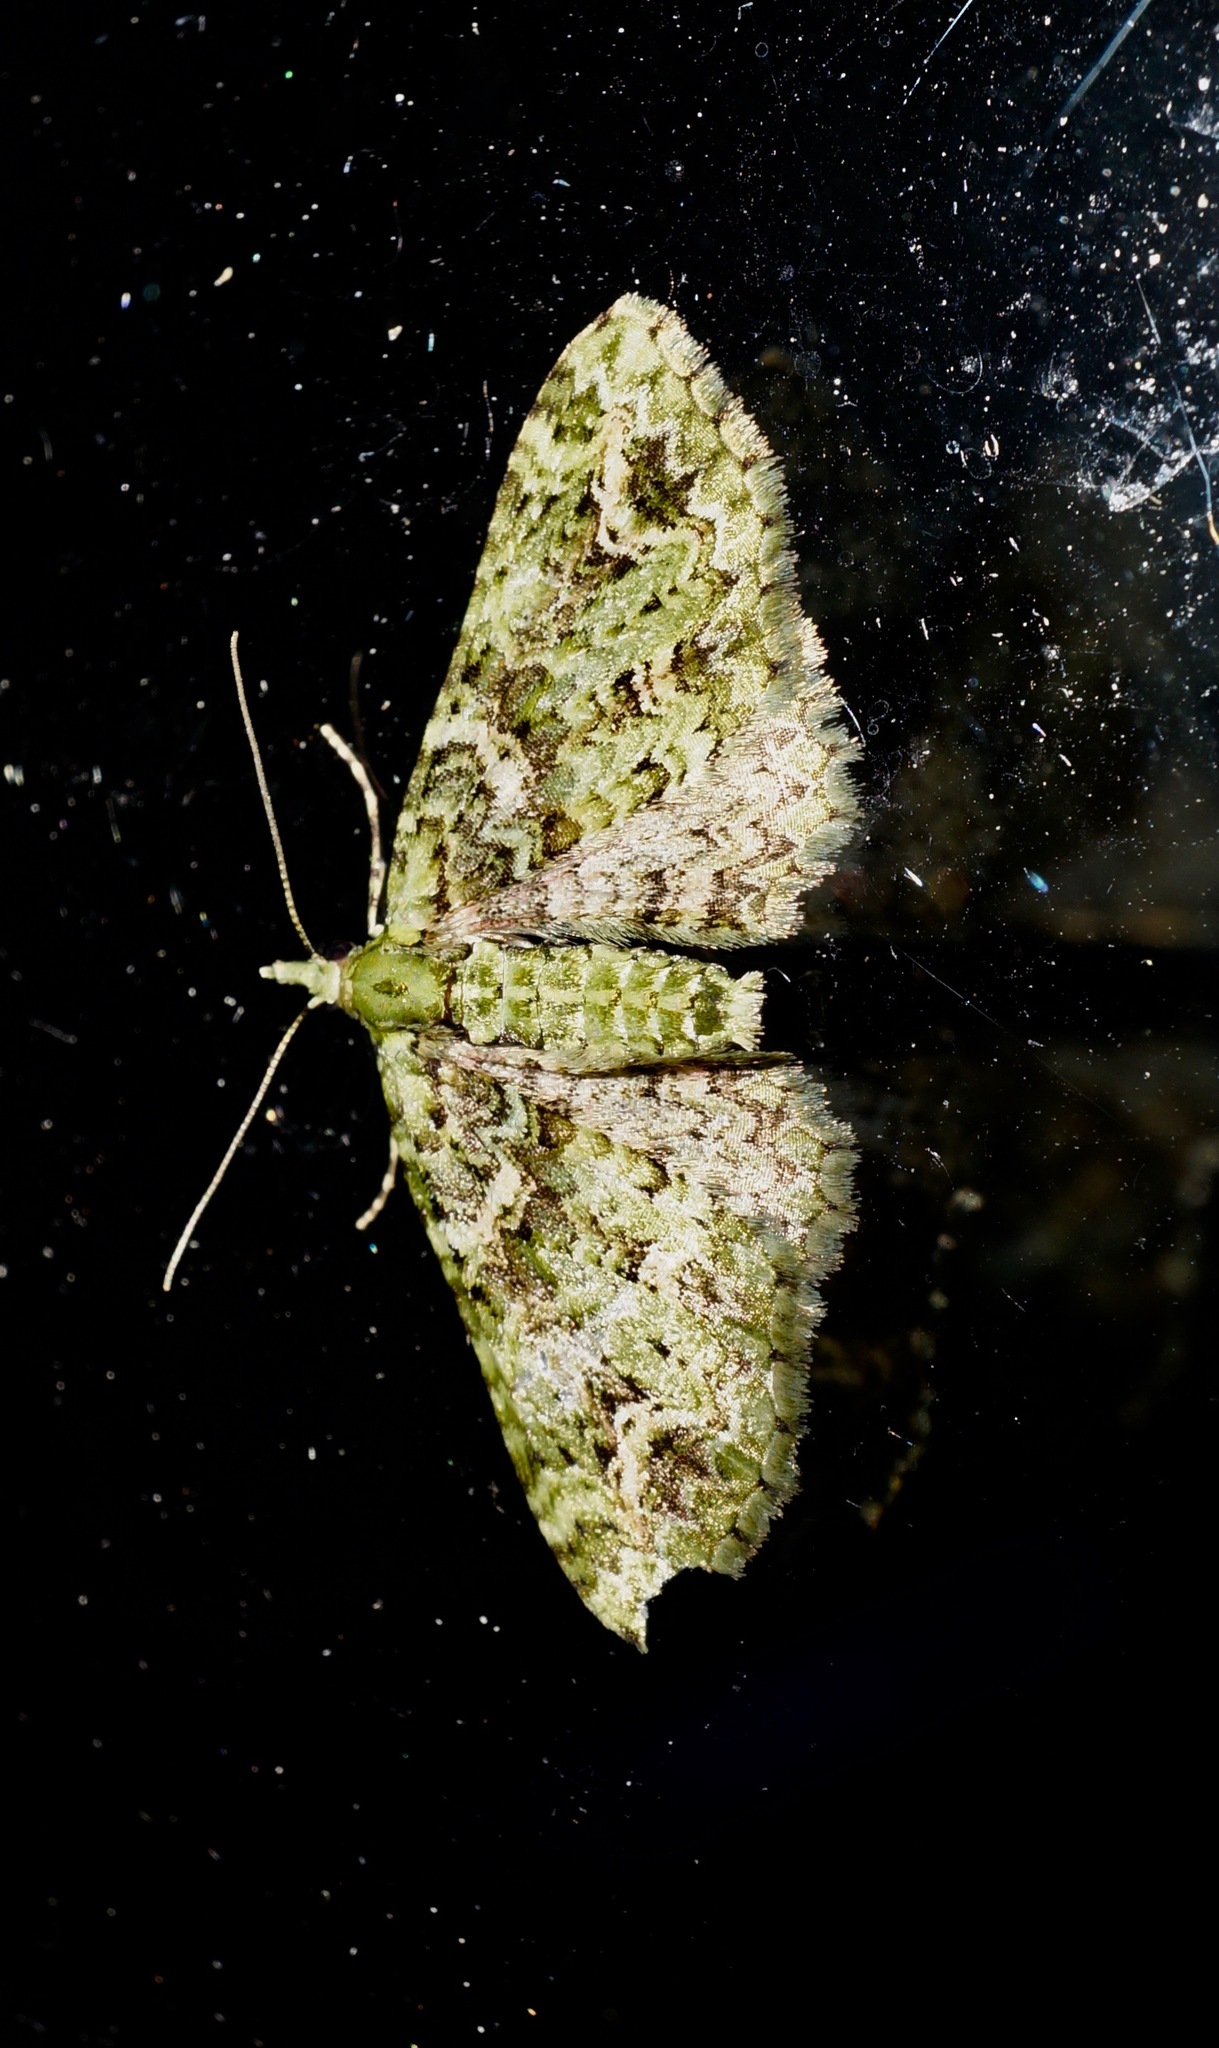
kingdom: Animalia
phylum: Arthropoda
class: Insecta
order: Lepidoptera
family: Geometridae
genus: Pasiphila
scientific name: Pasiphila muscosata
